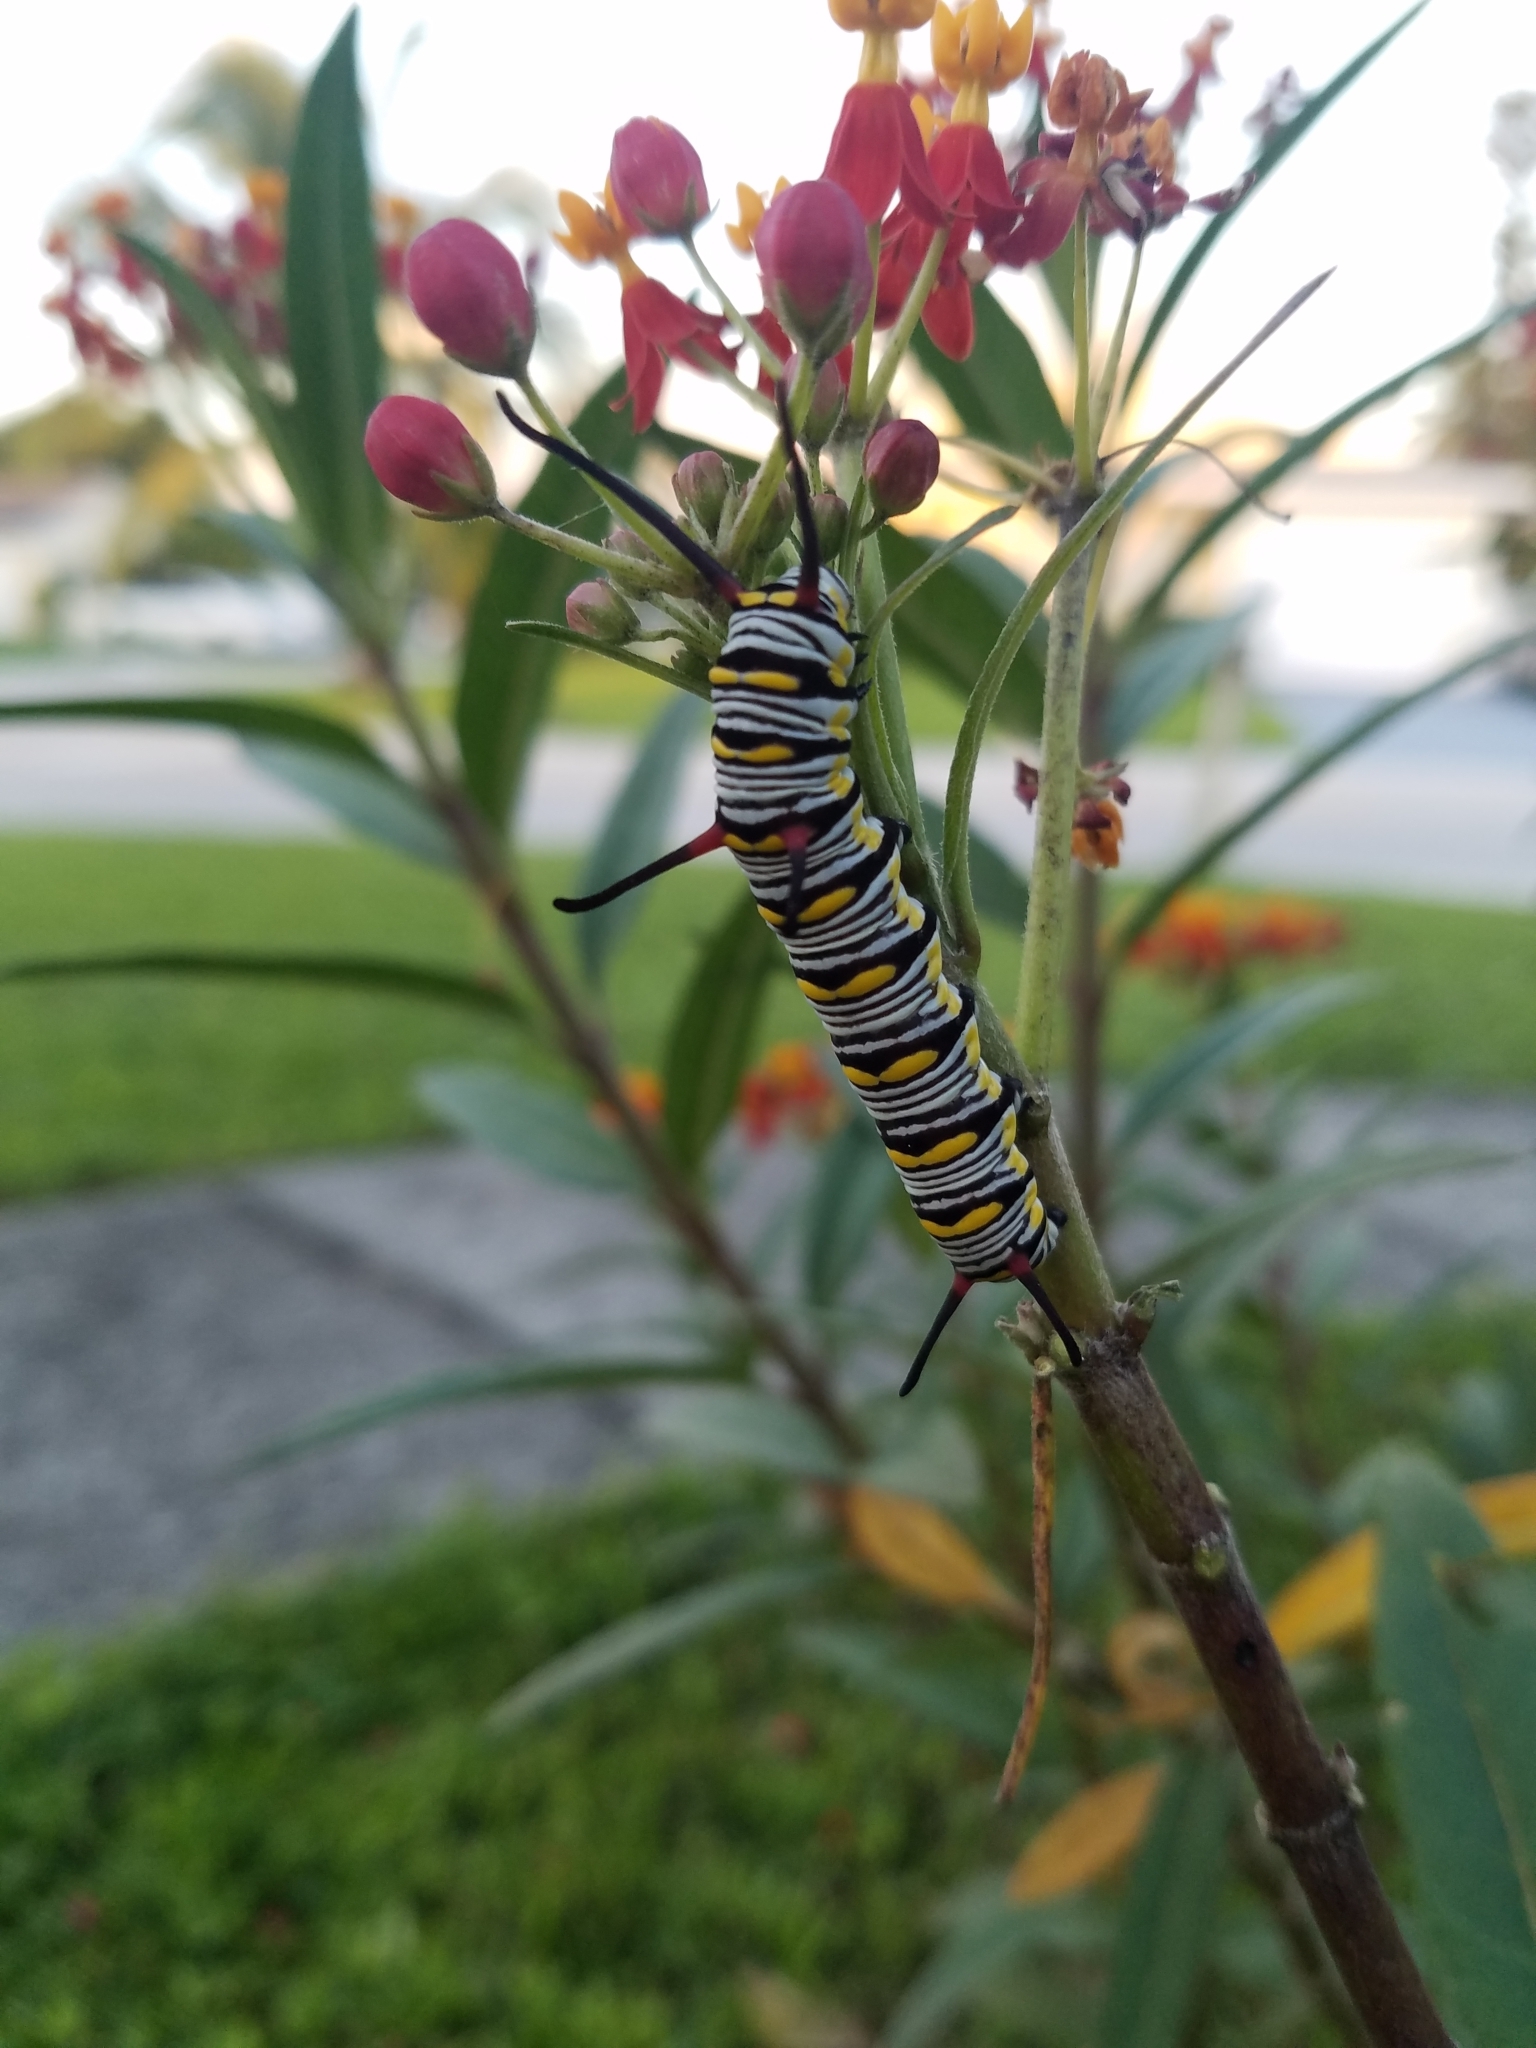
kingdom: Animalia
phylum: Arthropoda
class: Insecta
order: Lepidoptera
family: Nymphalidae
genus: Danaus
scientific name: Danaus gilippus
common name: Queen
